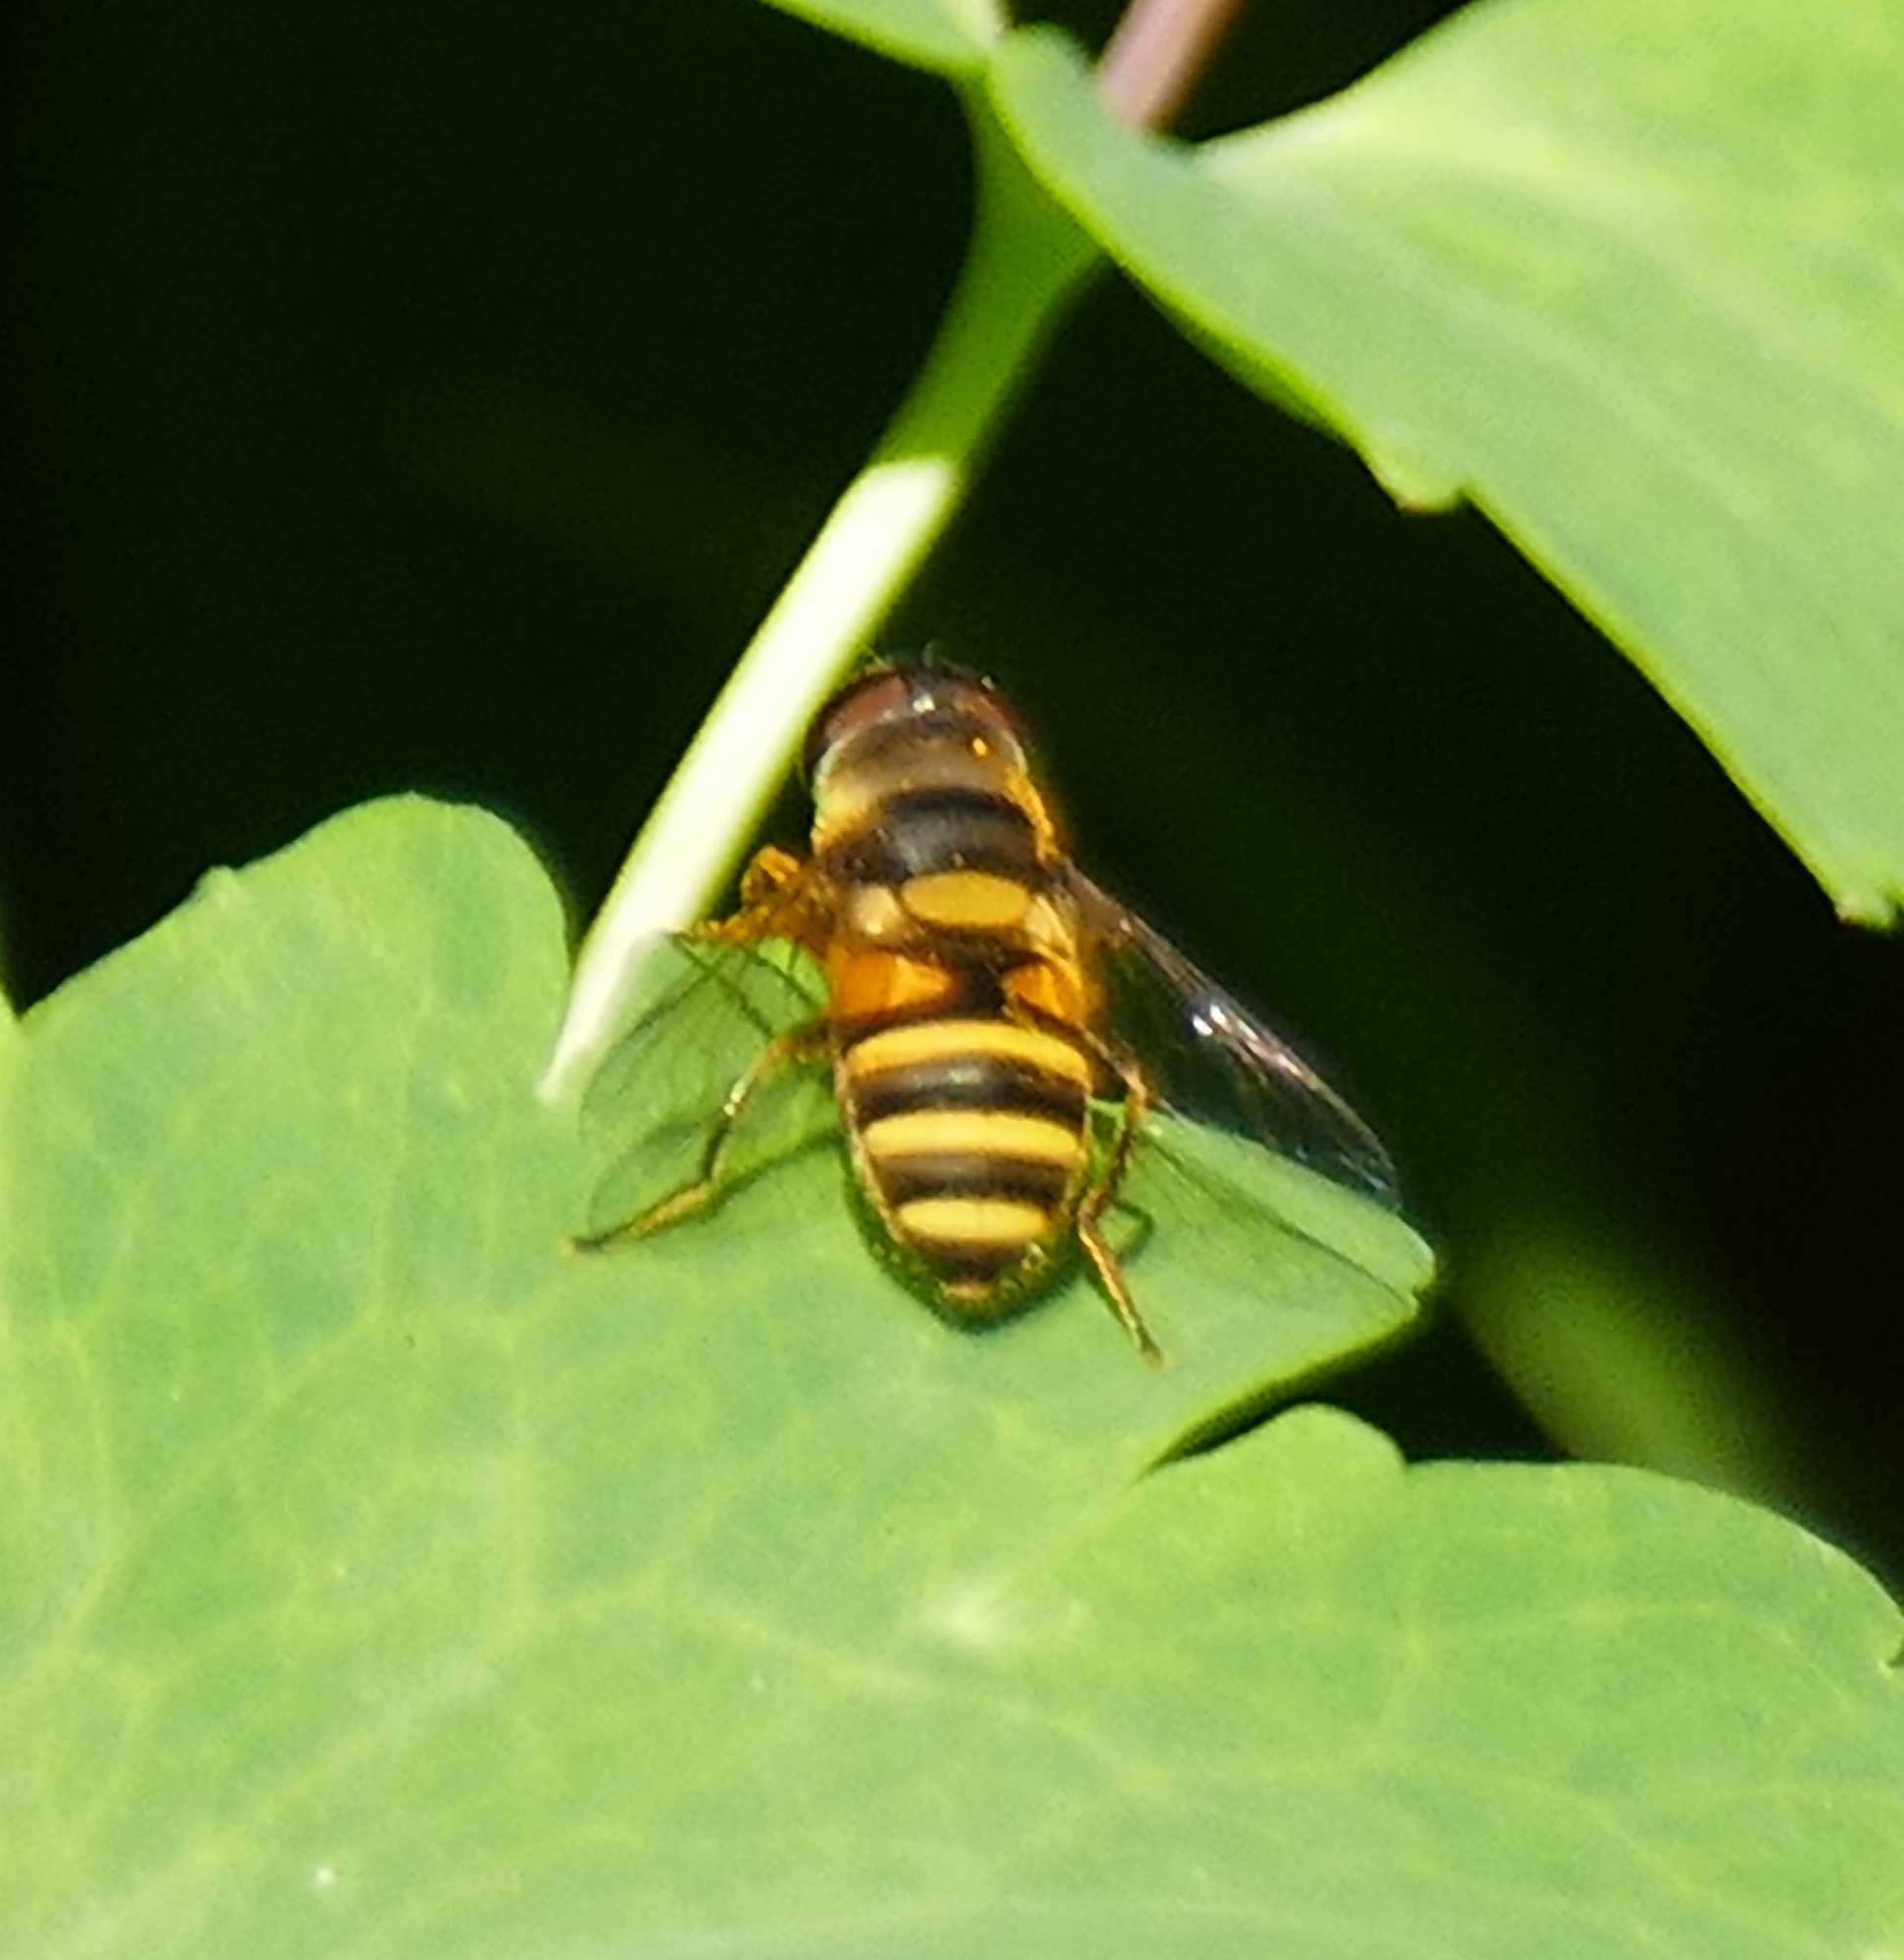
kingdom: Animalia
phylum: Arthropoda
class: Insecta
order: Diptera
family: Syrphidae
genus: Eristalis
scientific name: Eristalis transversa
